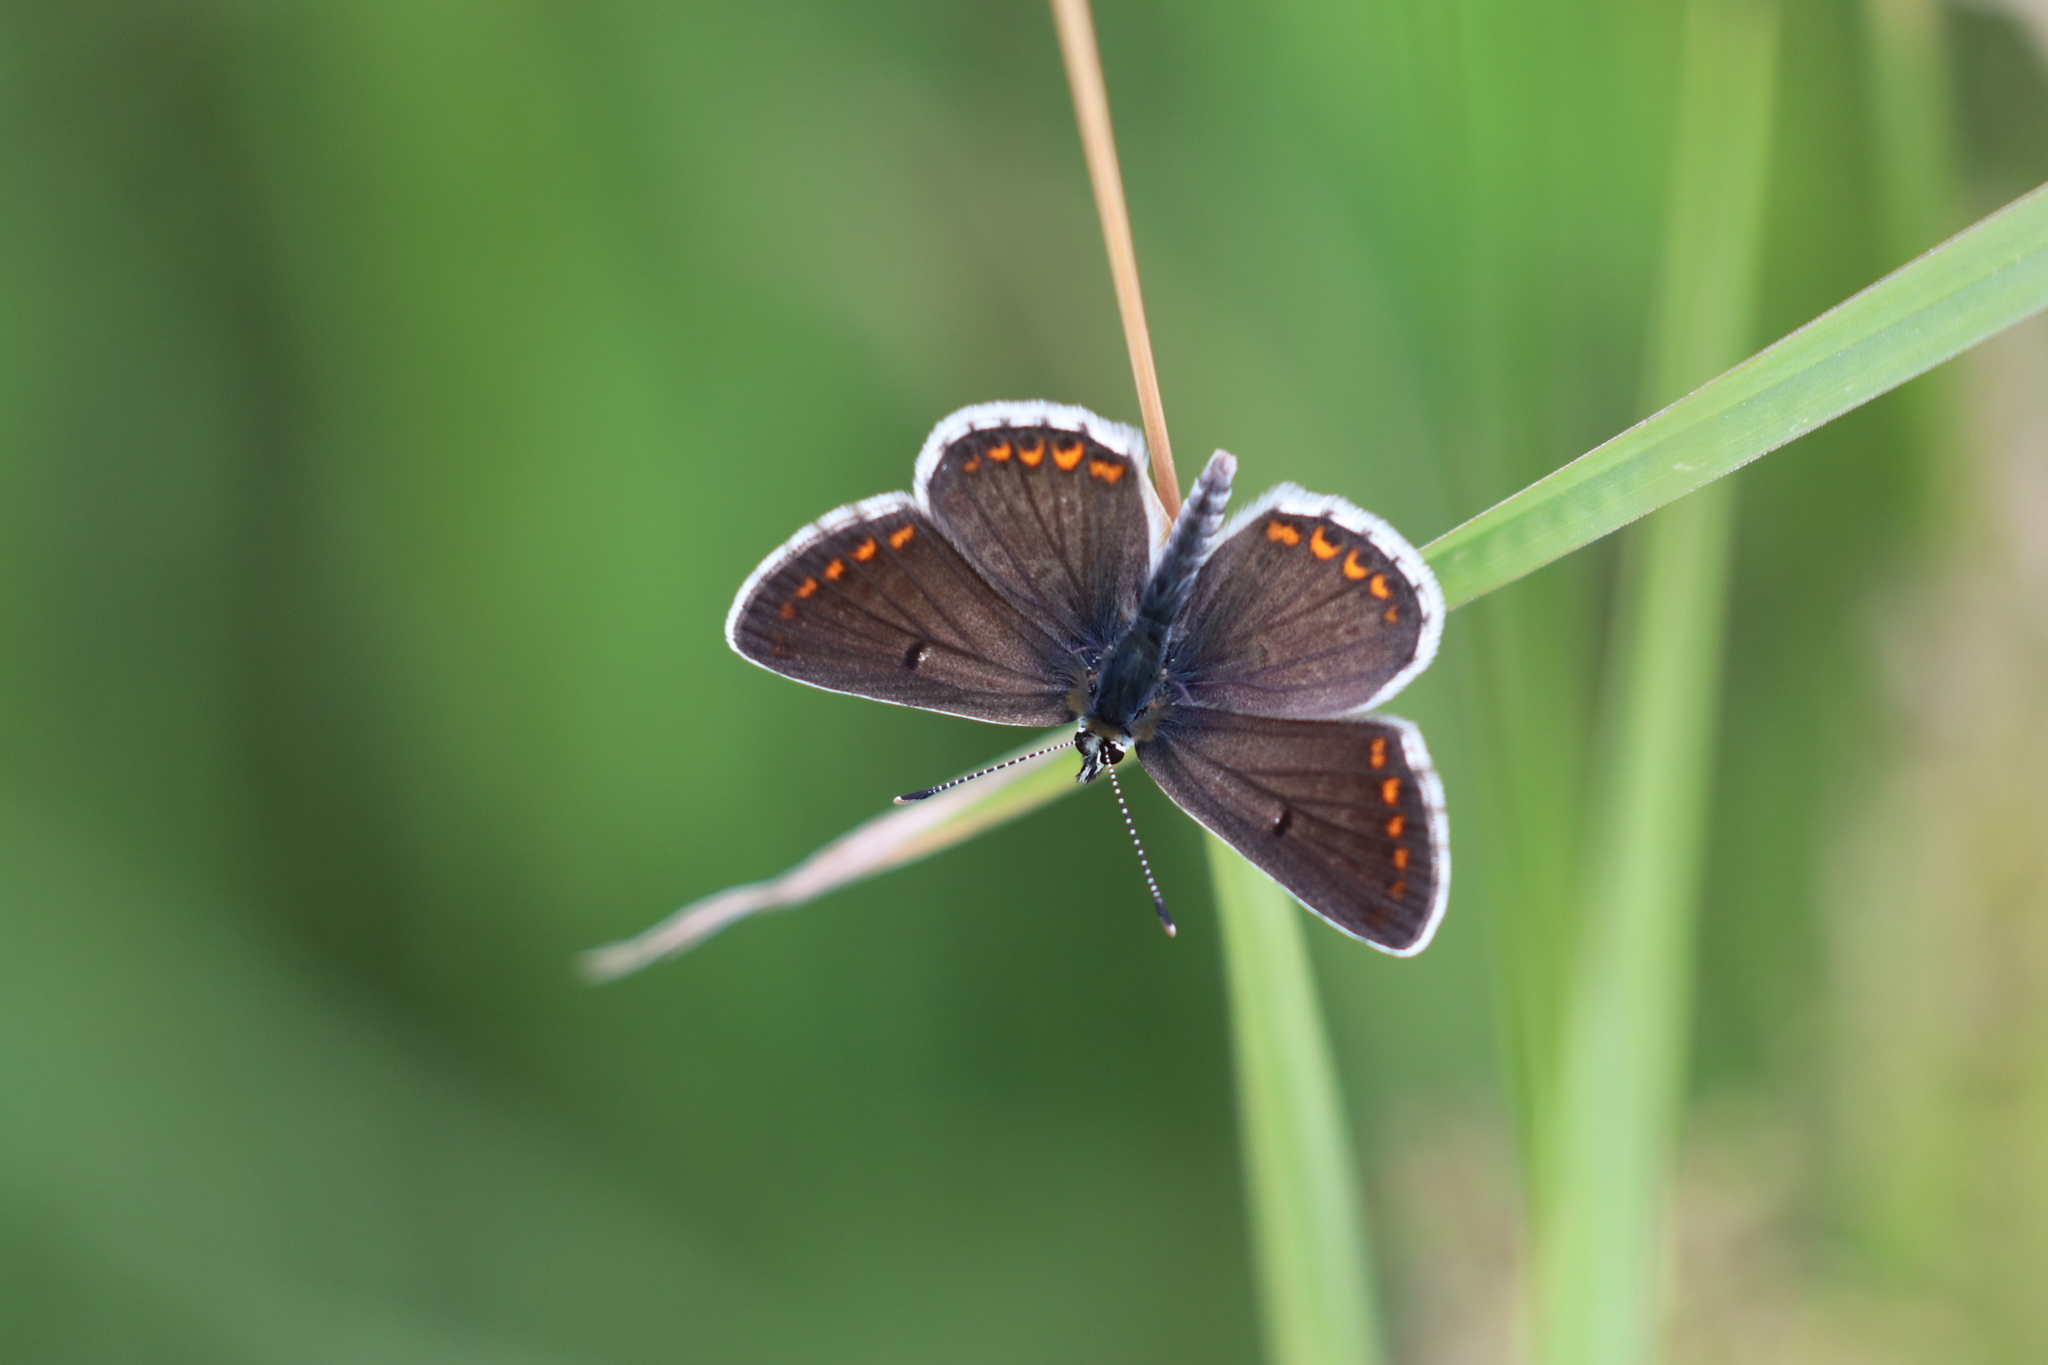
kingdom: Animalia
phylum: Arthropoda
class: Insecta
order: Lepidoptera
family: Lycaenidae
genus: Aricia
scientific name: Aricia agestis
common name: Brown argus
